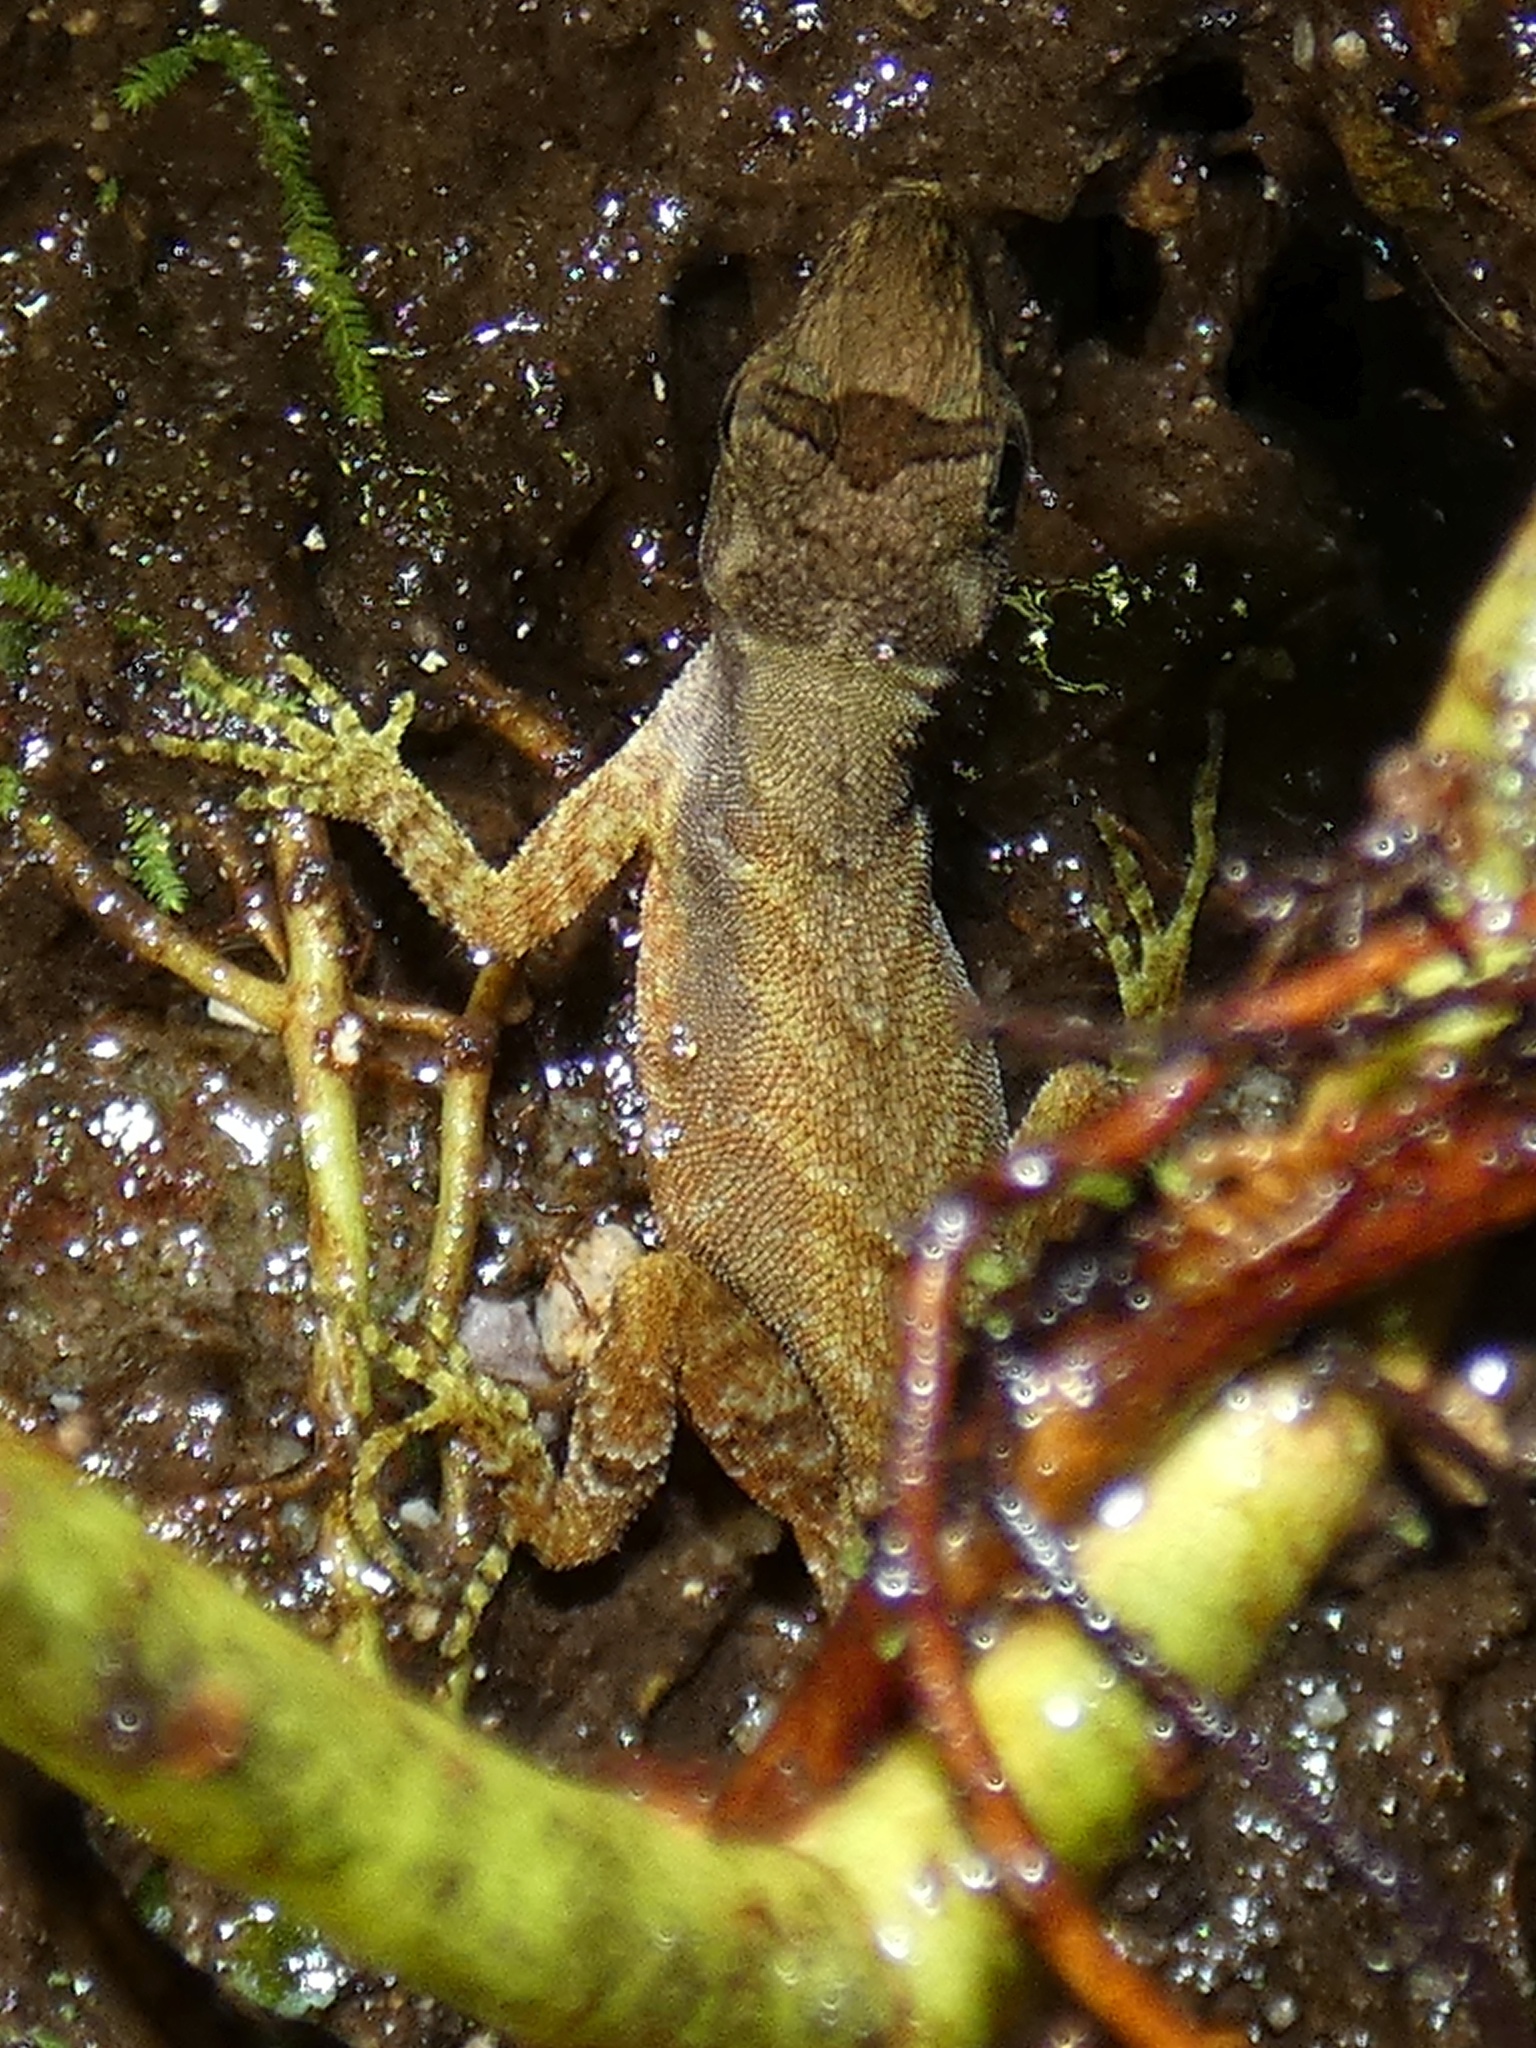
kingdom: Animalia
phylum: Chordata
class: Squamata
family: Dactyloidae
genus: Anolis
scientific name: Anolis humilis
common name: Humble anole
